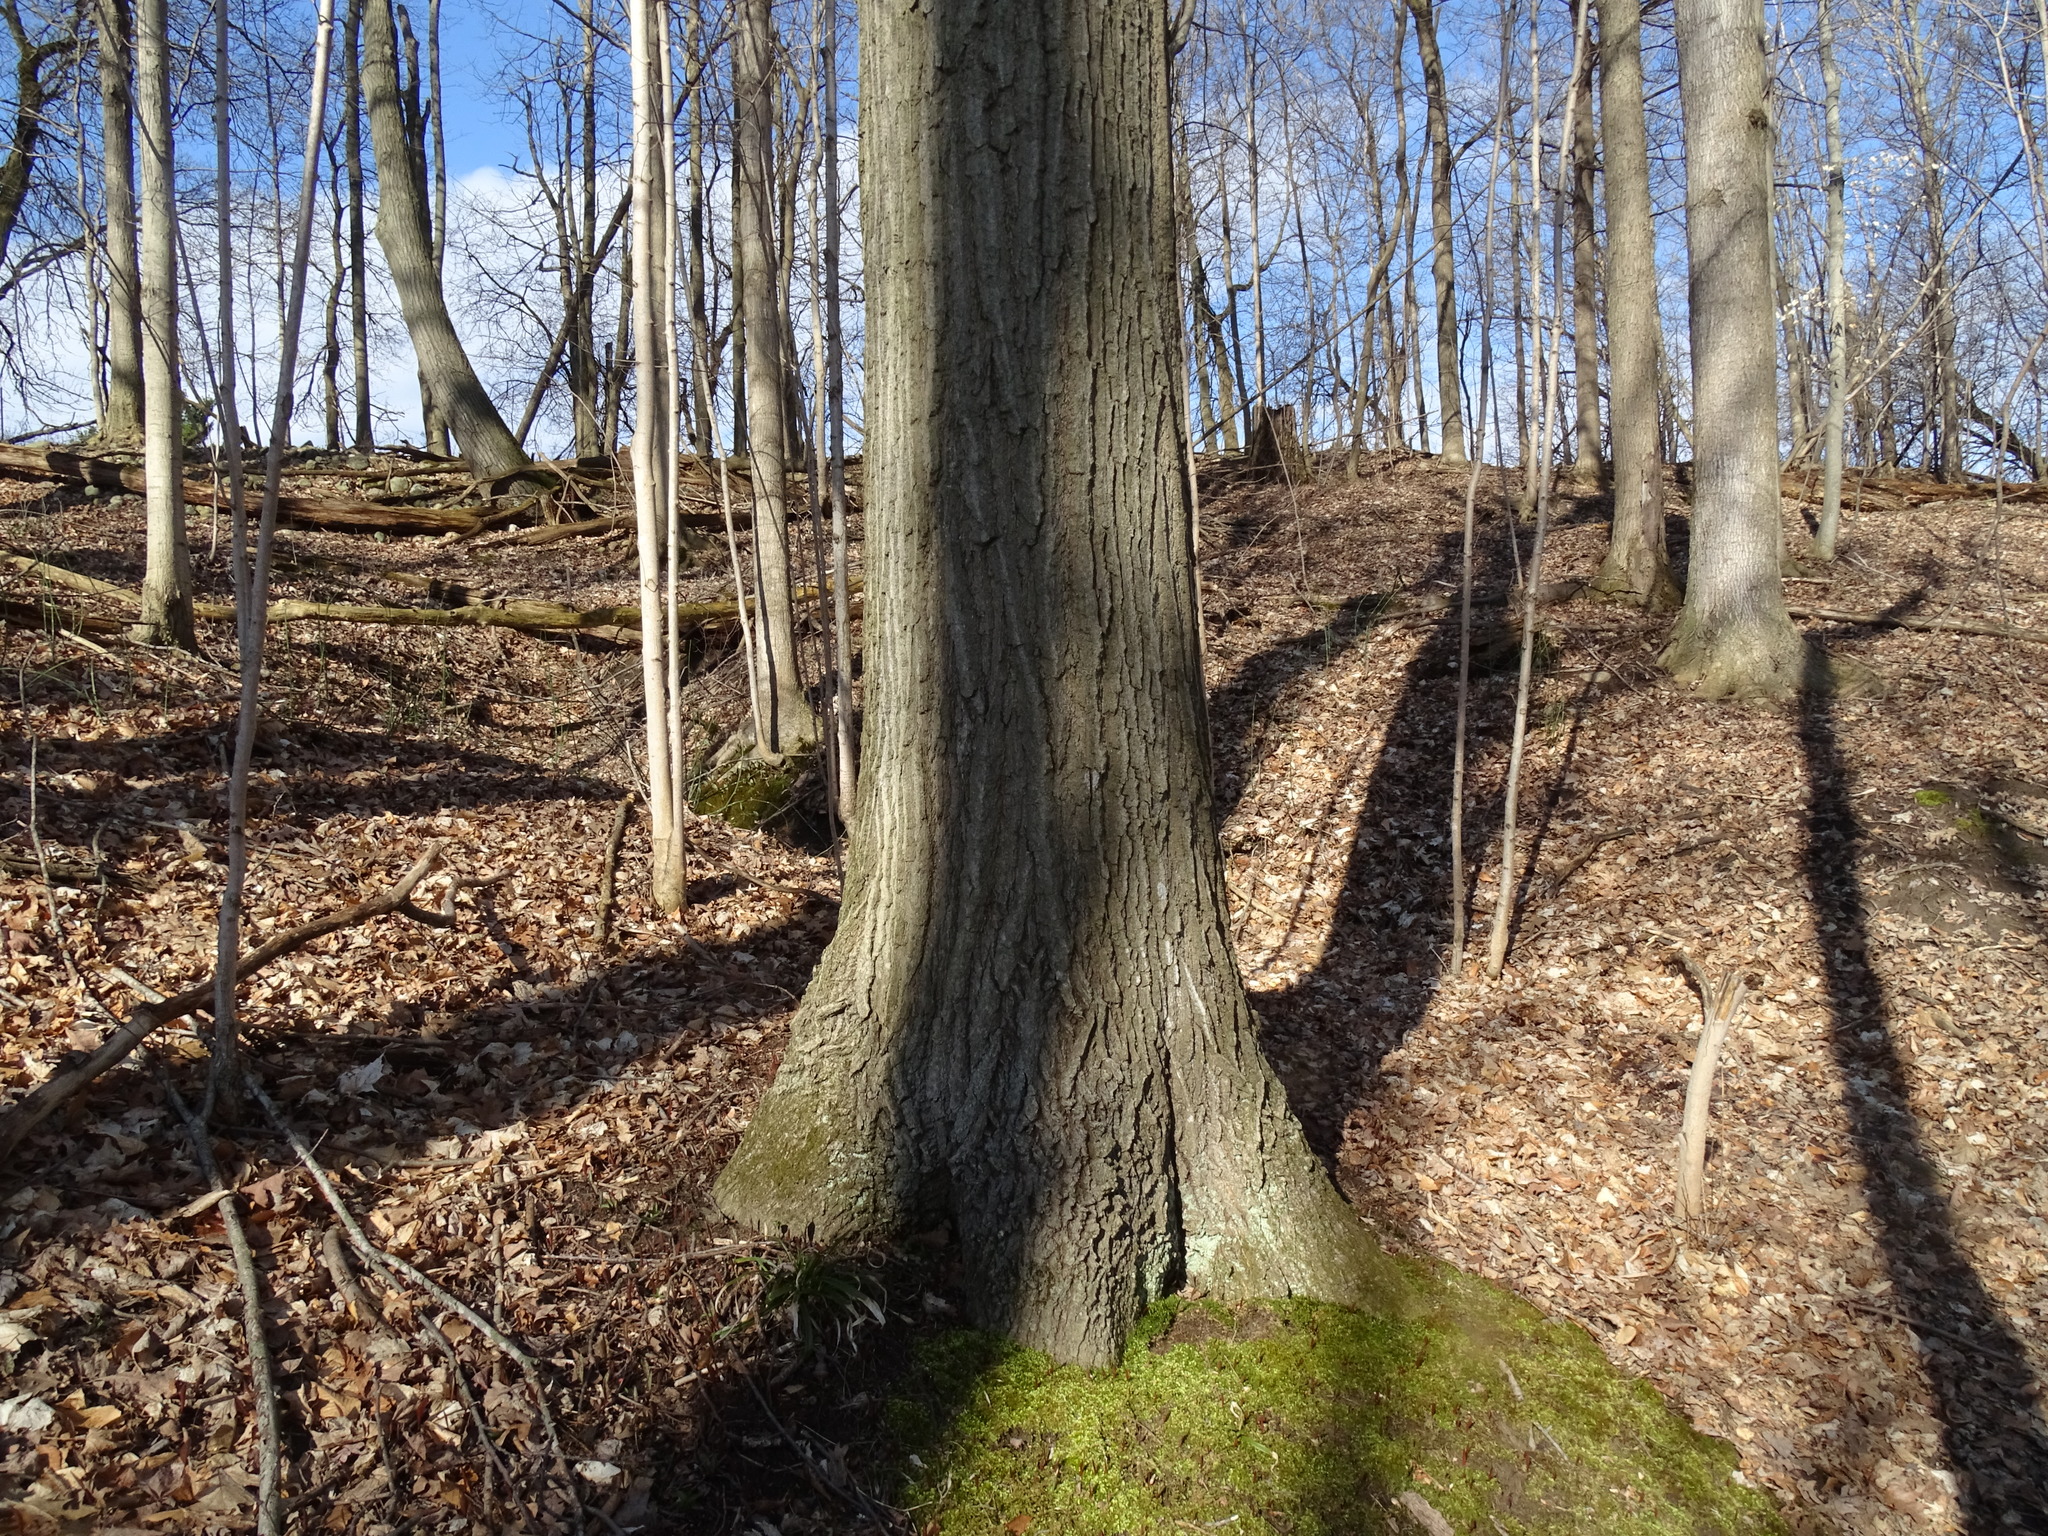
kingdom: Plantae
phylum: Tracheophyta
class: Magnoliopsida
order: Fagales
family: Fagaceae
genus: Quercus
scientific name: Quercus rubra
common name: Red oak
